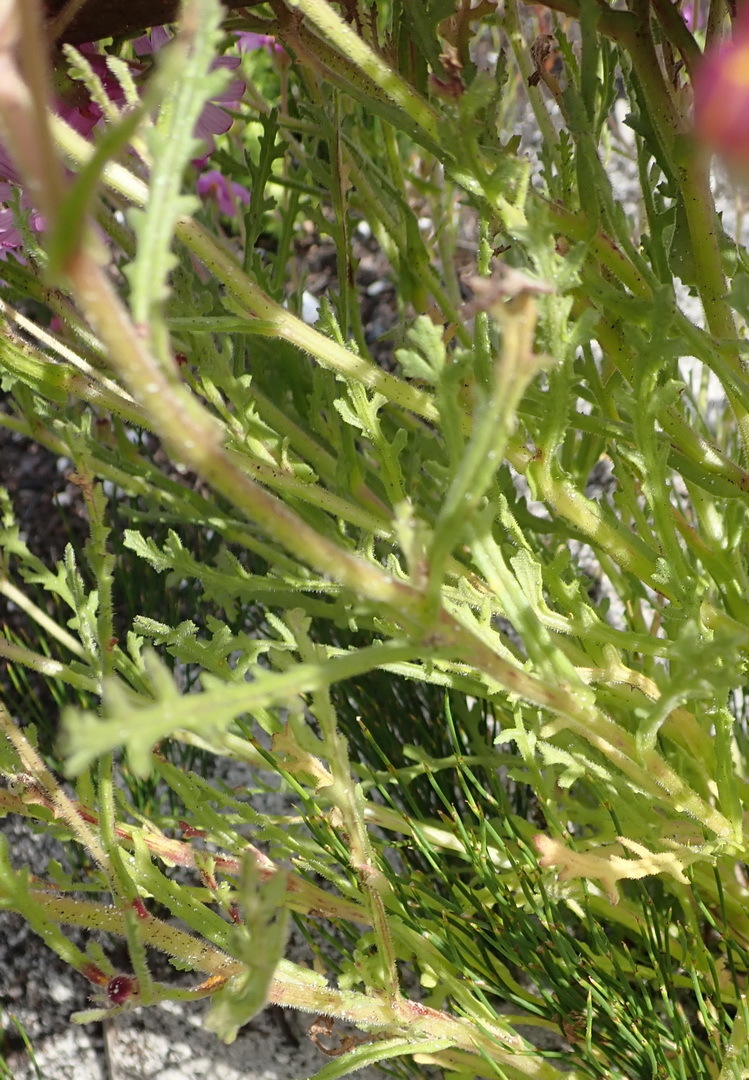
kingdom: Plantae
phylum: Tracheophyta
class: Magnoliopsida
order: Asterales
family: Asteraceae
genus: Senecio
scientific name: Senecio arenarius
